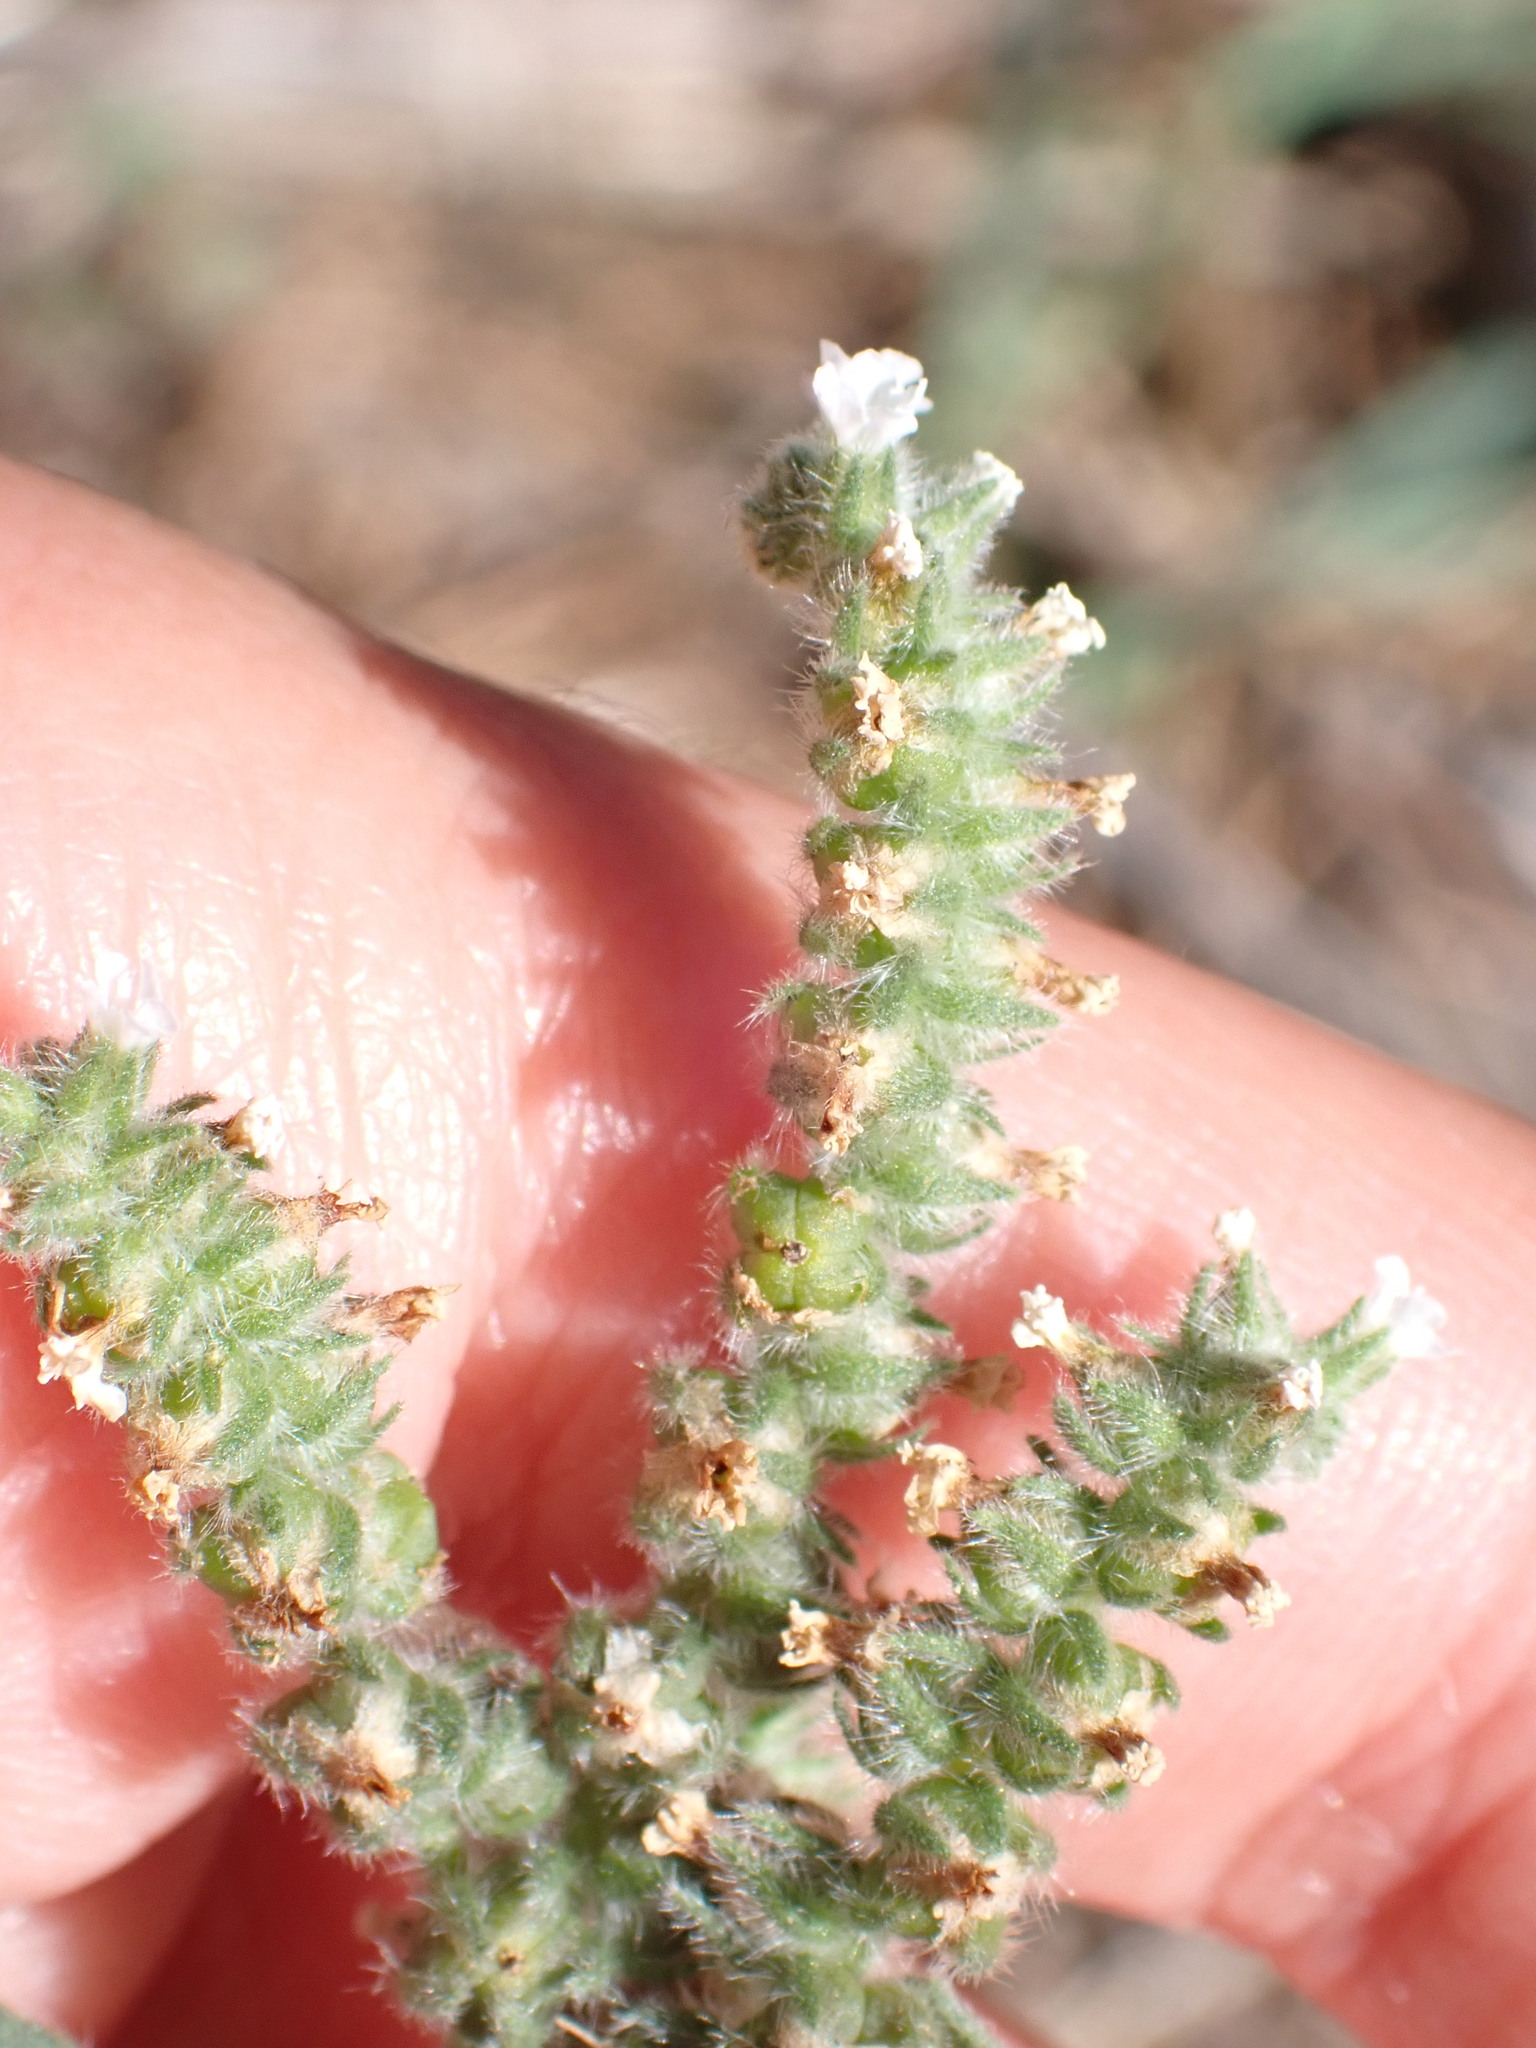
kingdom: Plantae
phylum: Tracheophyta
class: Magnoliopsida
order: Boraginales
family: Heliotropiaceae
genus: Heliotropium
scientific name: Heliotropium europaeum
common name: European heliotrope
